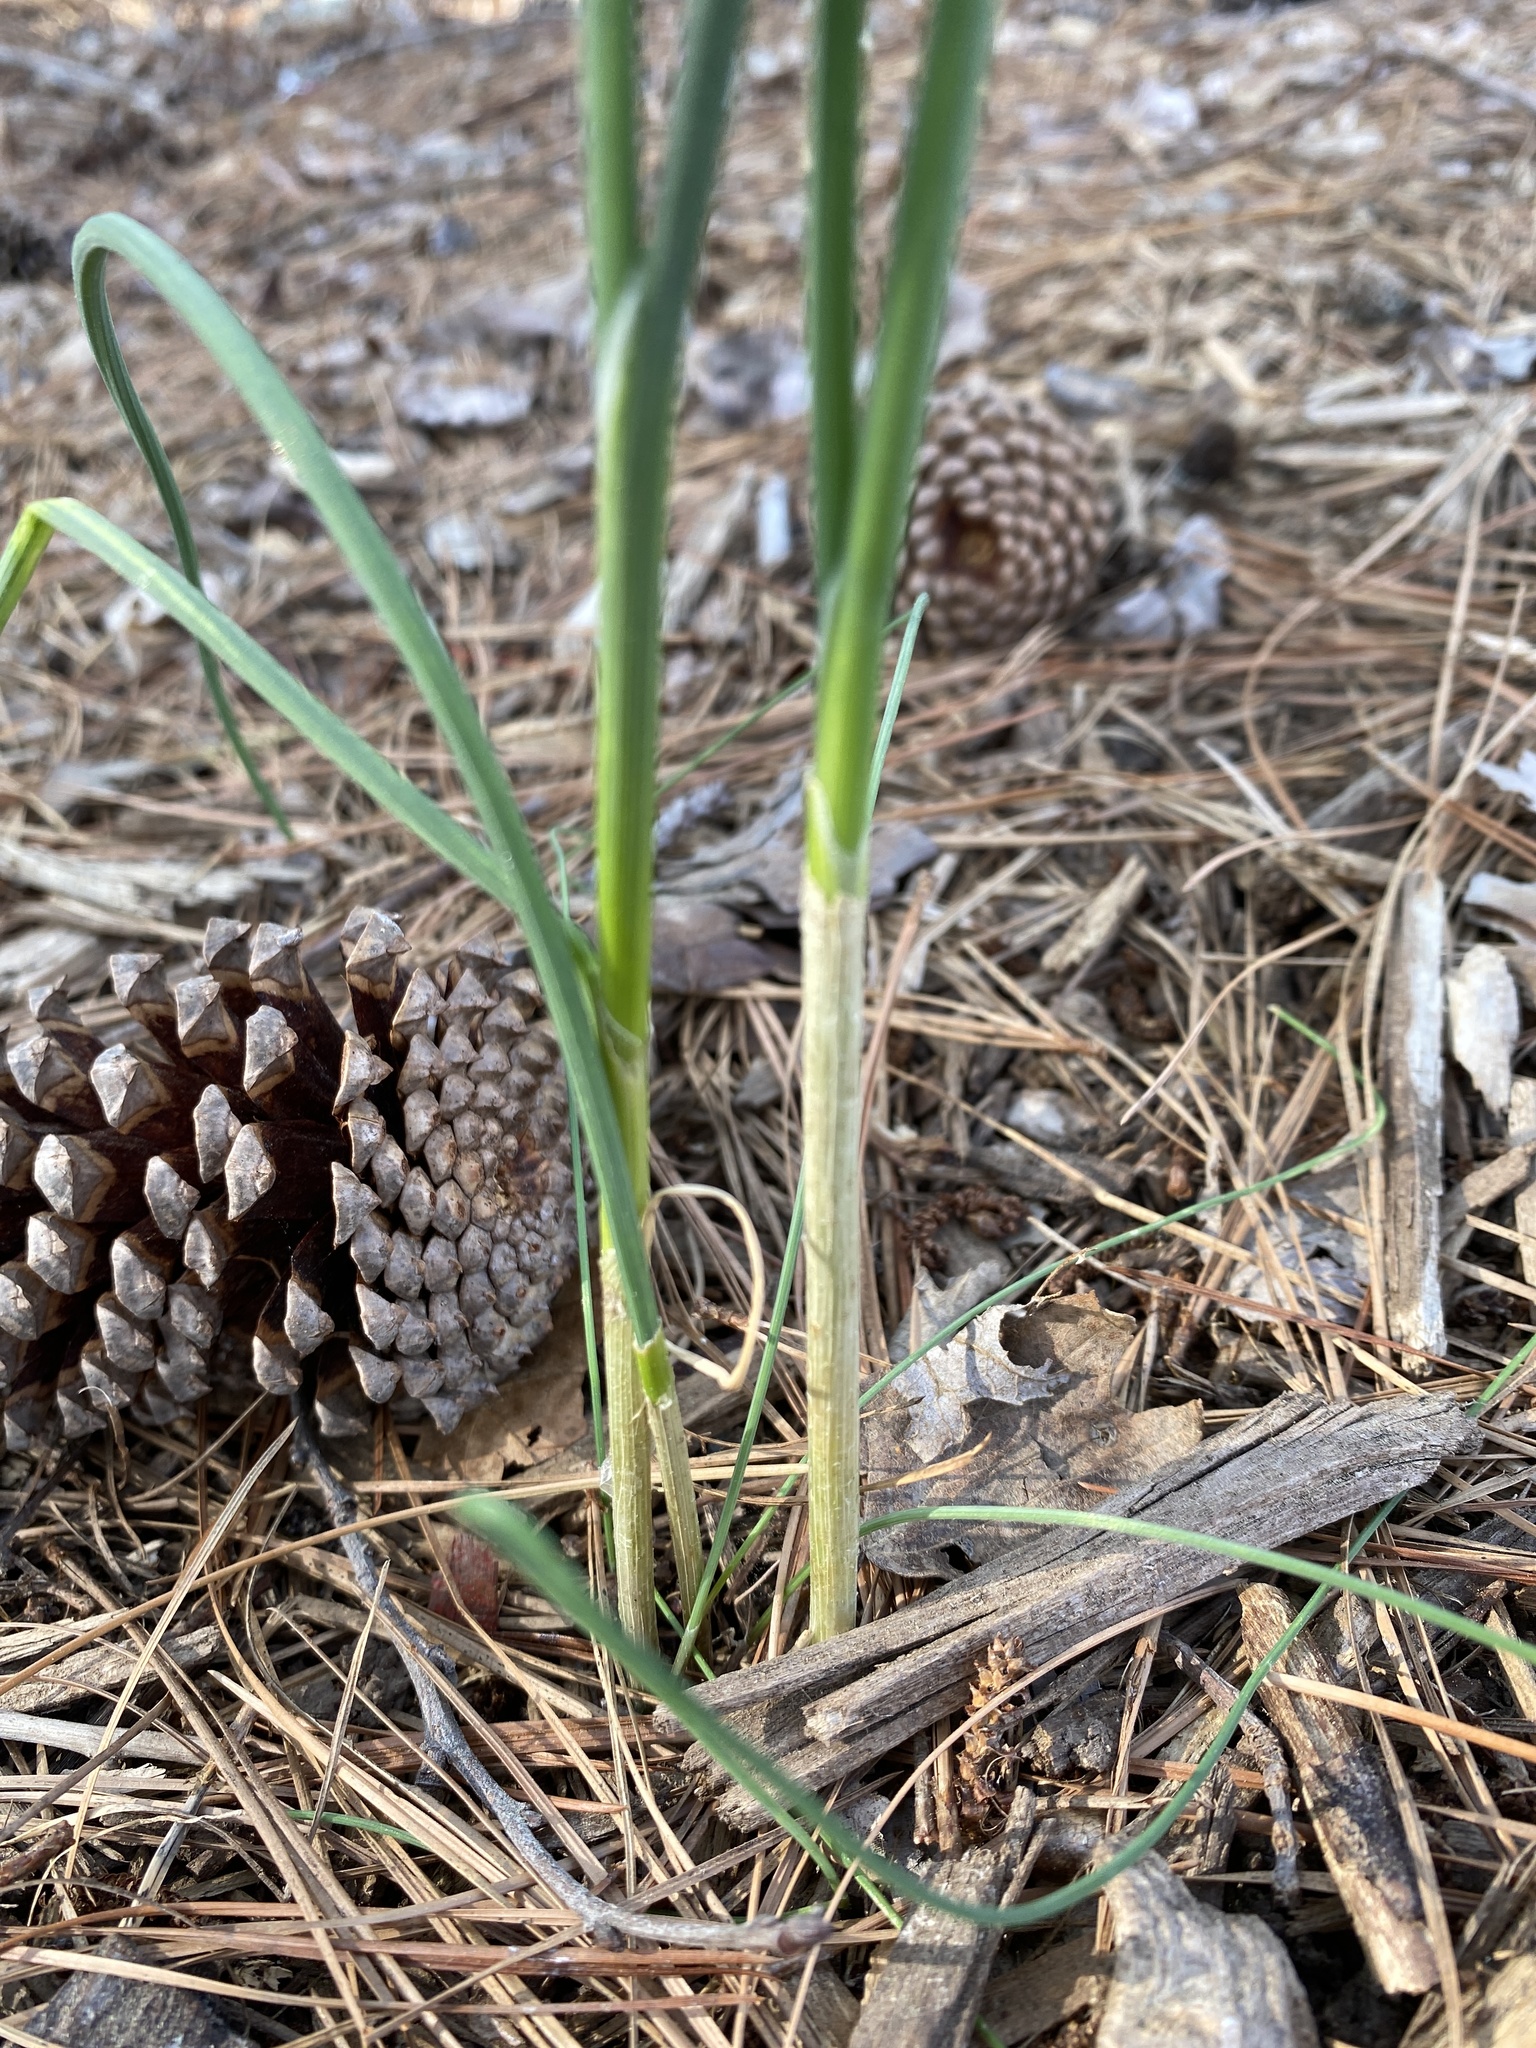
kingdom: Plantae
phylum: Tracheophyta
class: Liliopsida
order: Asparagales
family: Amaryllidaceae
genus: Allium
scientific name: Allium vineale
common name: Crow garlic
